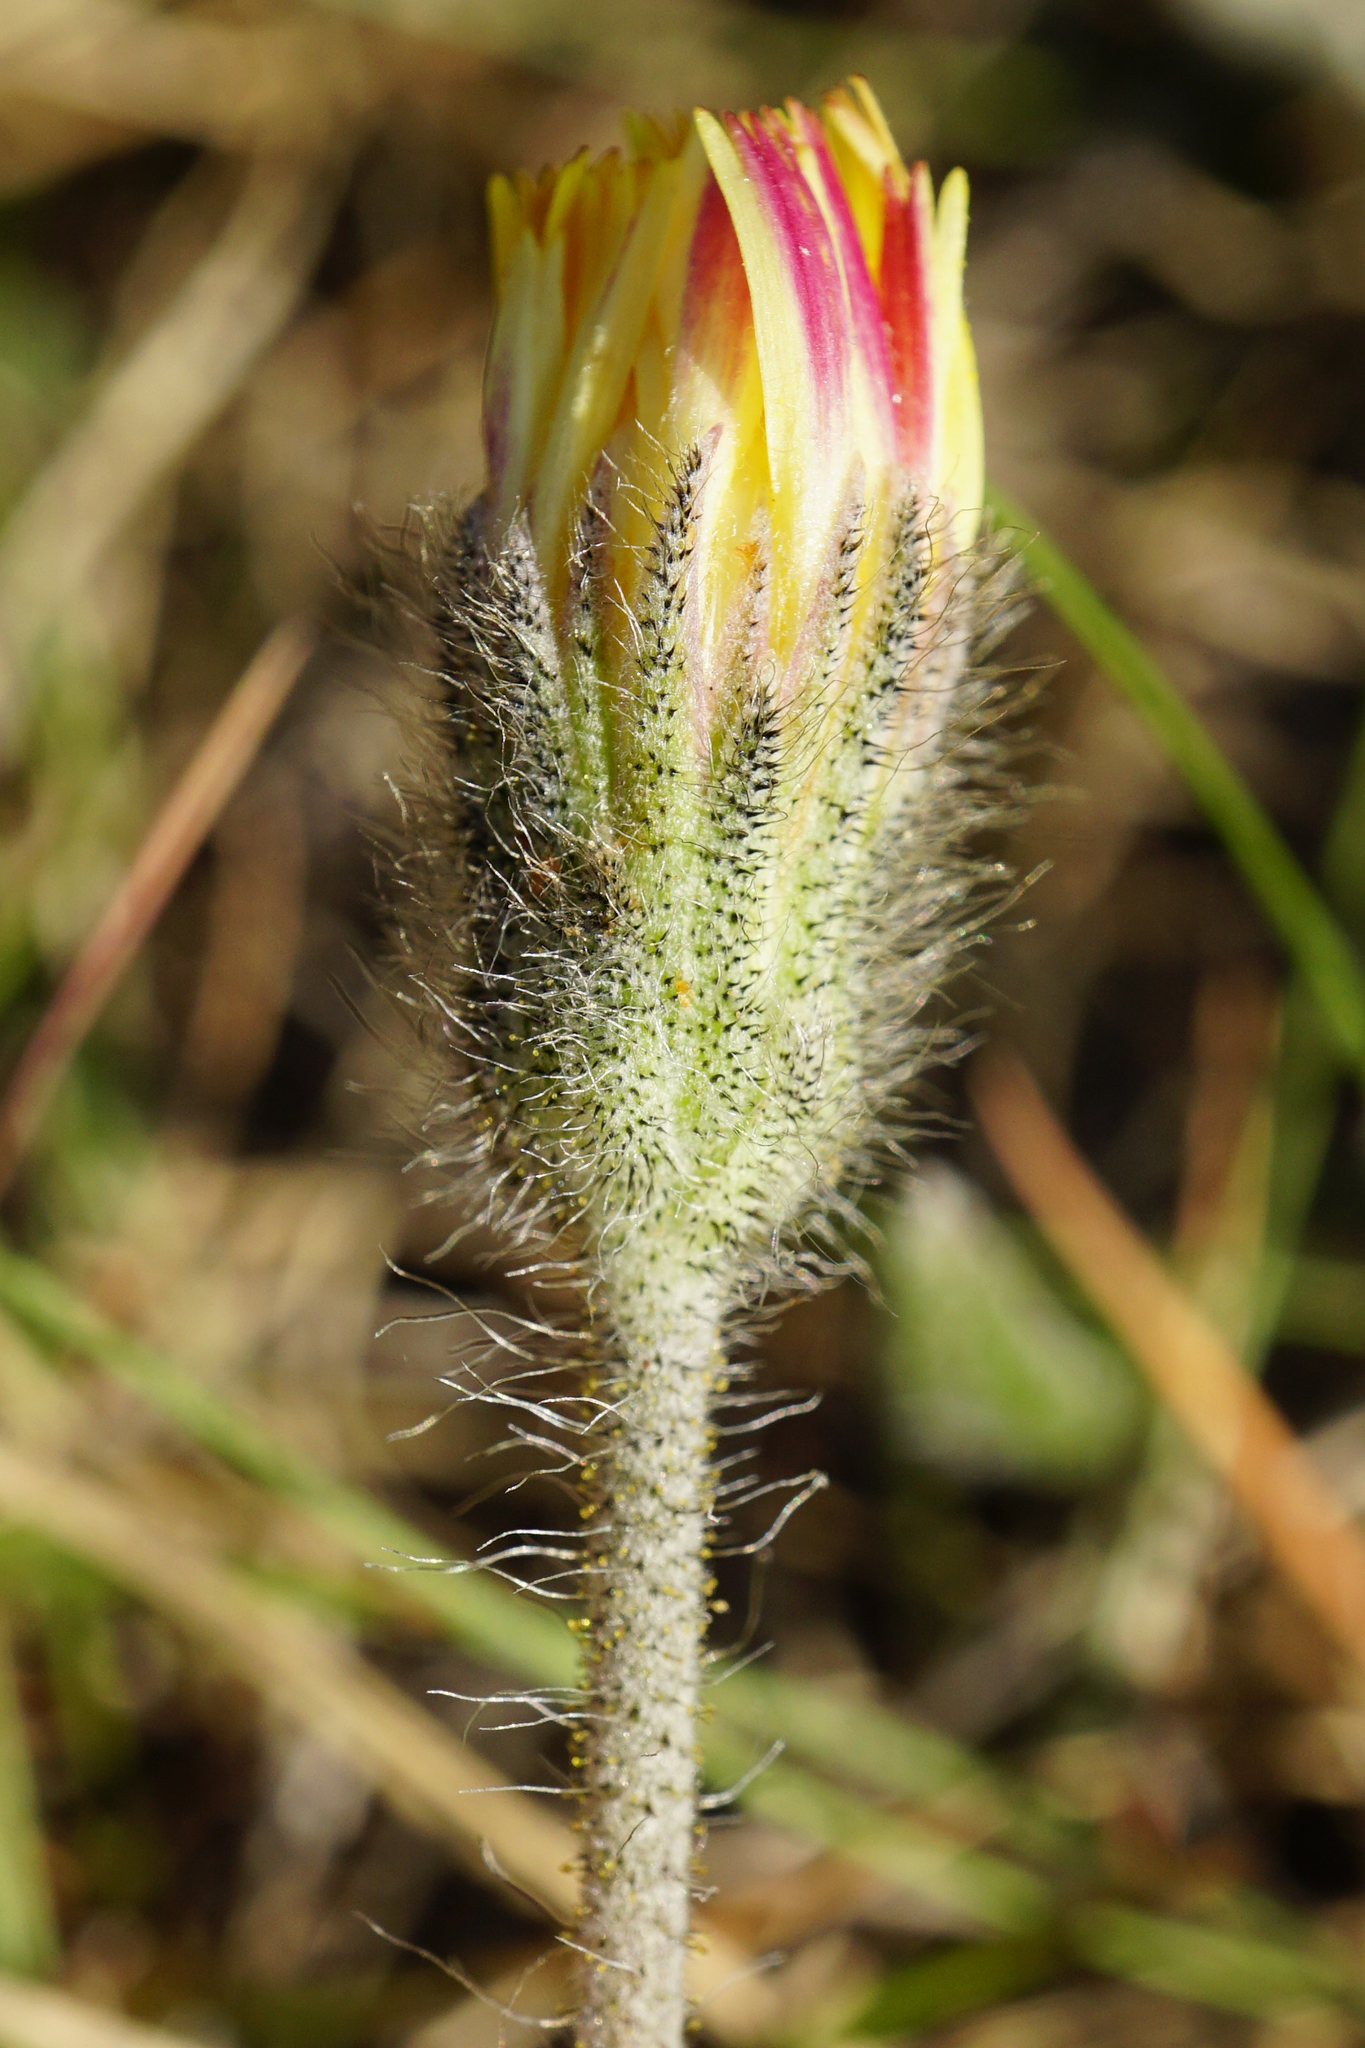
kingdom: Plantae
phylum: Tracheophyta
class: Magnoliopsida
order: Asterales
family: Asteraceae
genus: Pilosella
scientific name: Pilosella officinarum
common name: Mouse-ear hawkweed
